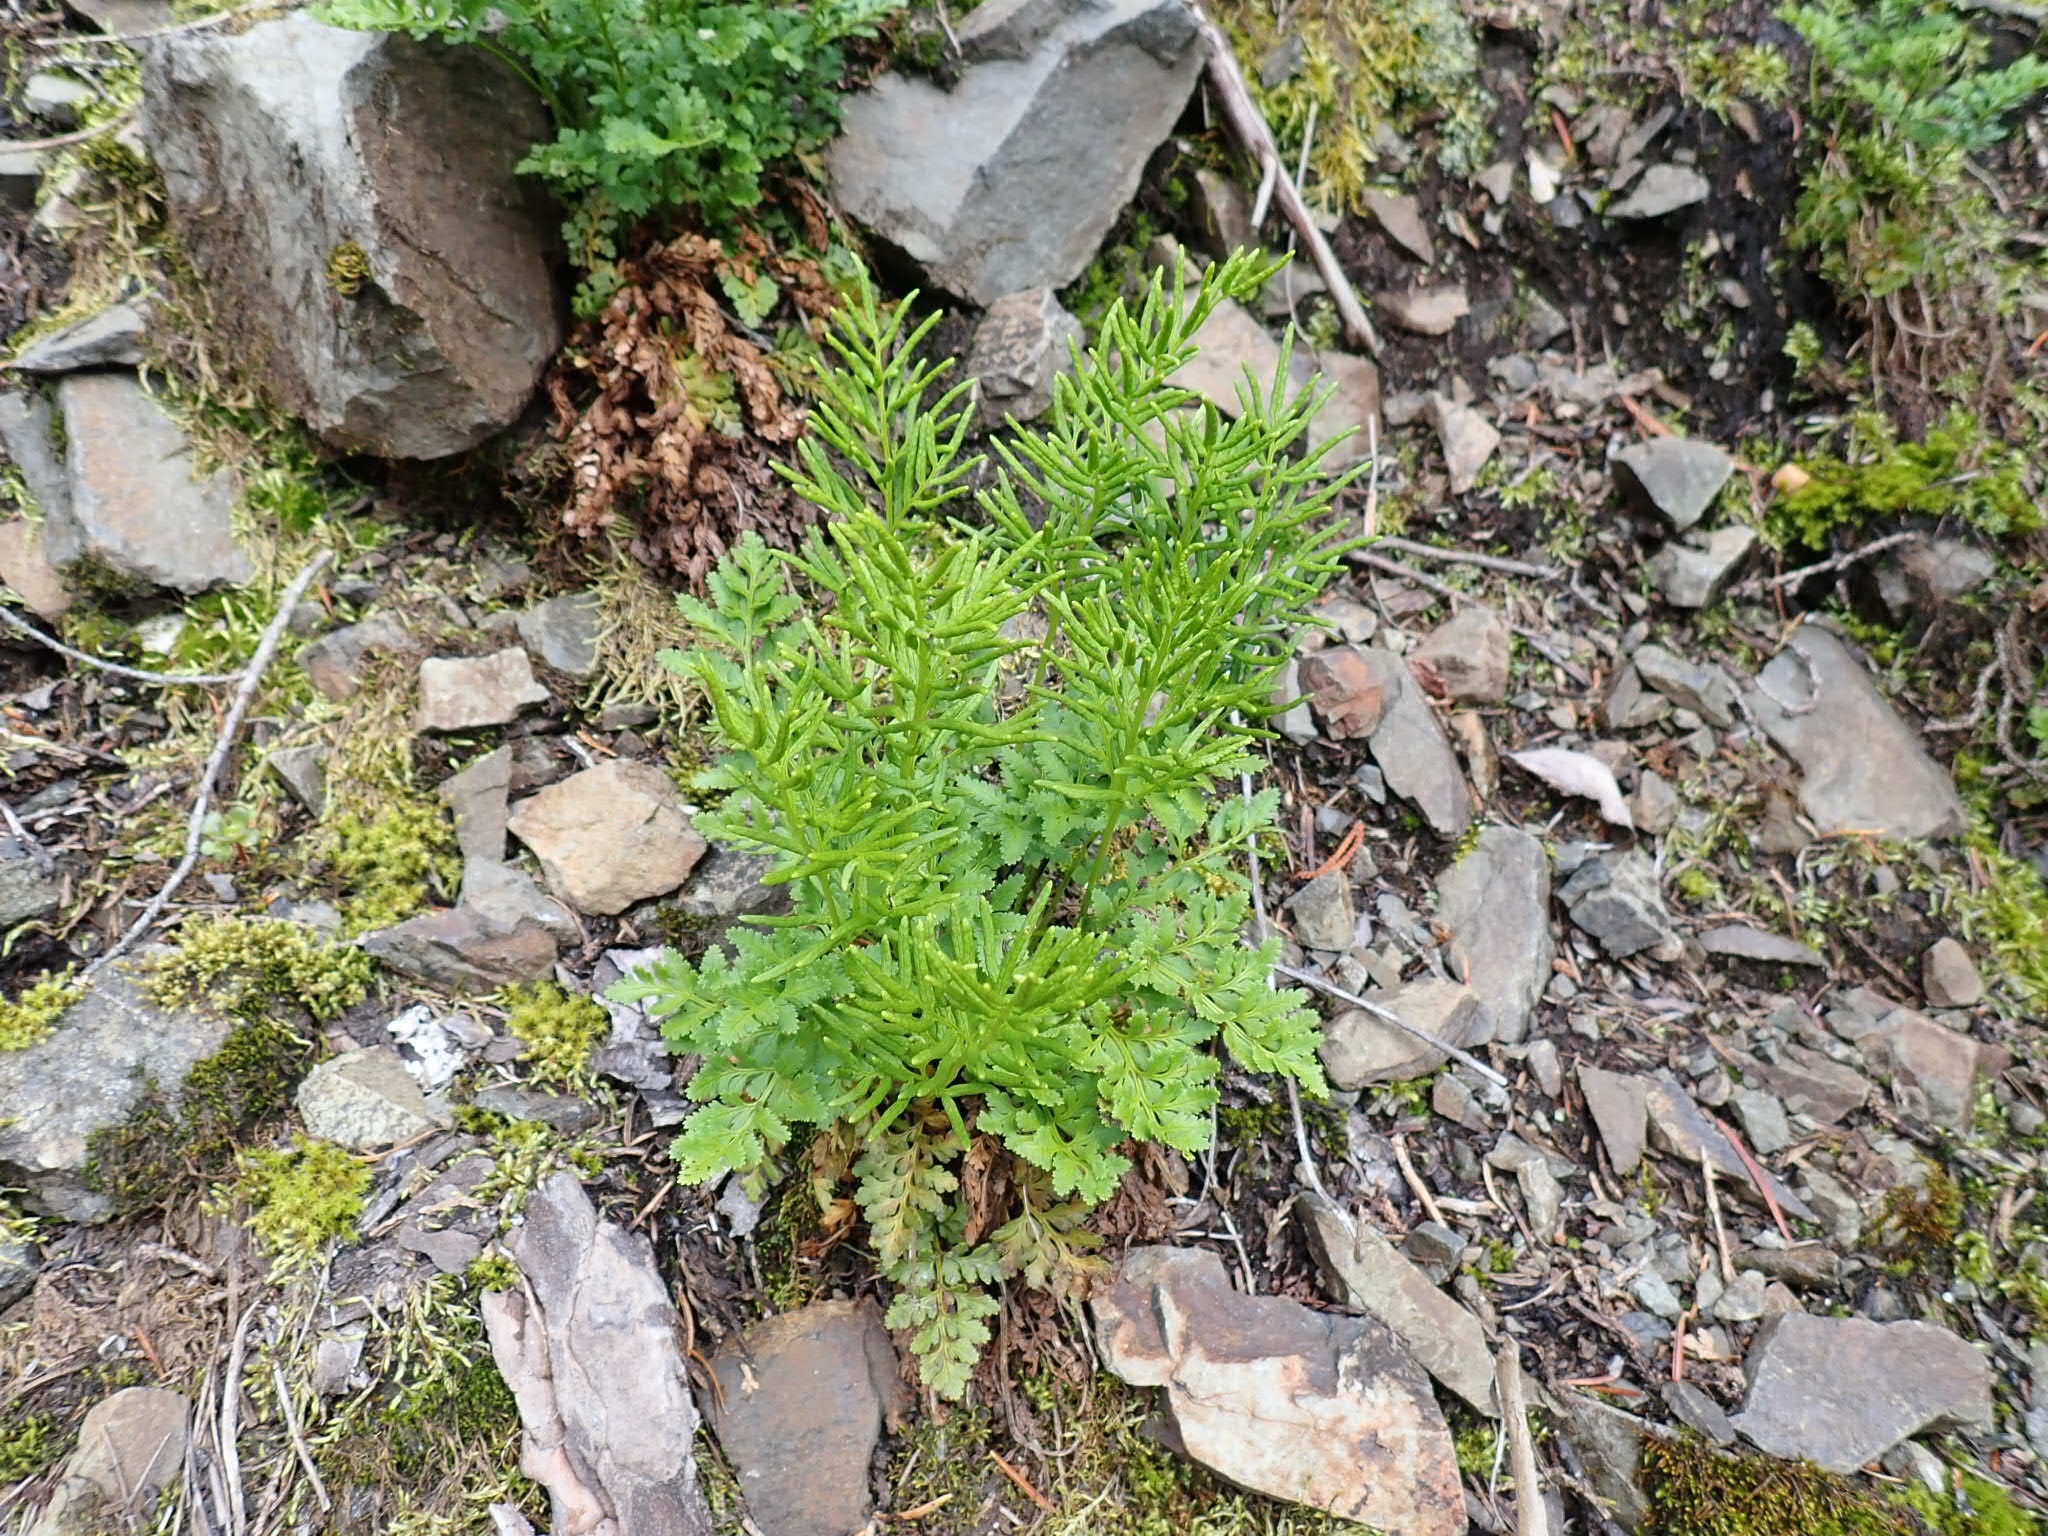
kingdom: Plantae
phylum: Tracheophyta
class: Polypodiopsida
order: Polypodiales
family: Pteridaceae
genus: Cryptogramma
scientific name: Cryptogramma acrostichoides
